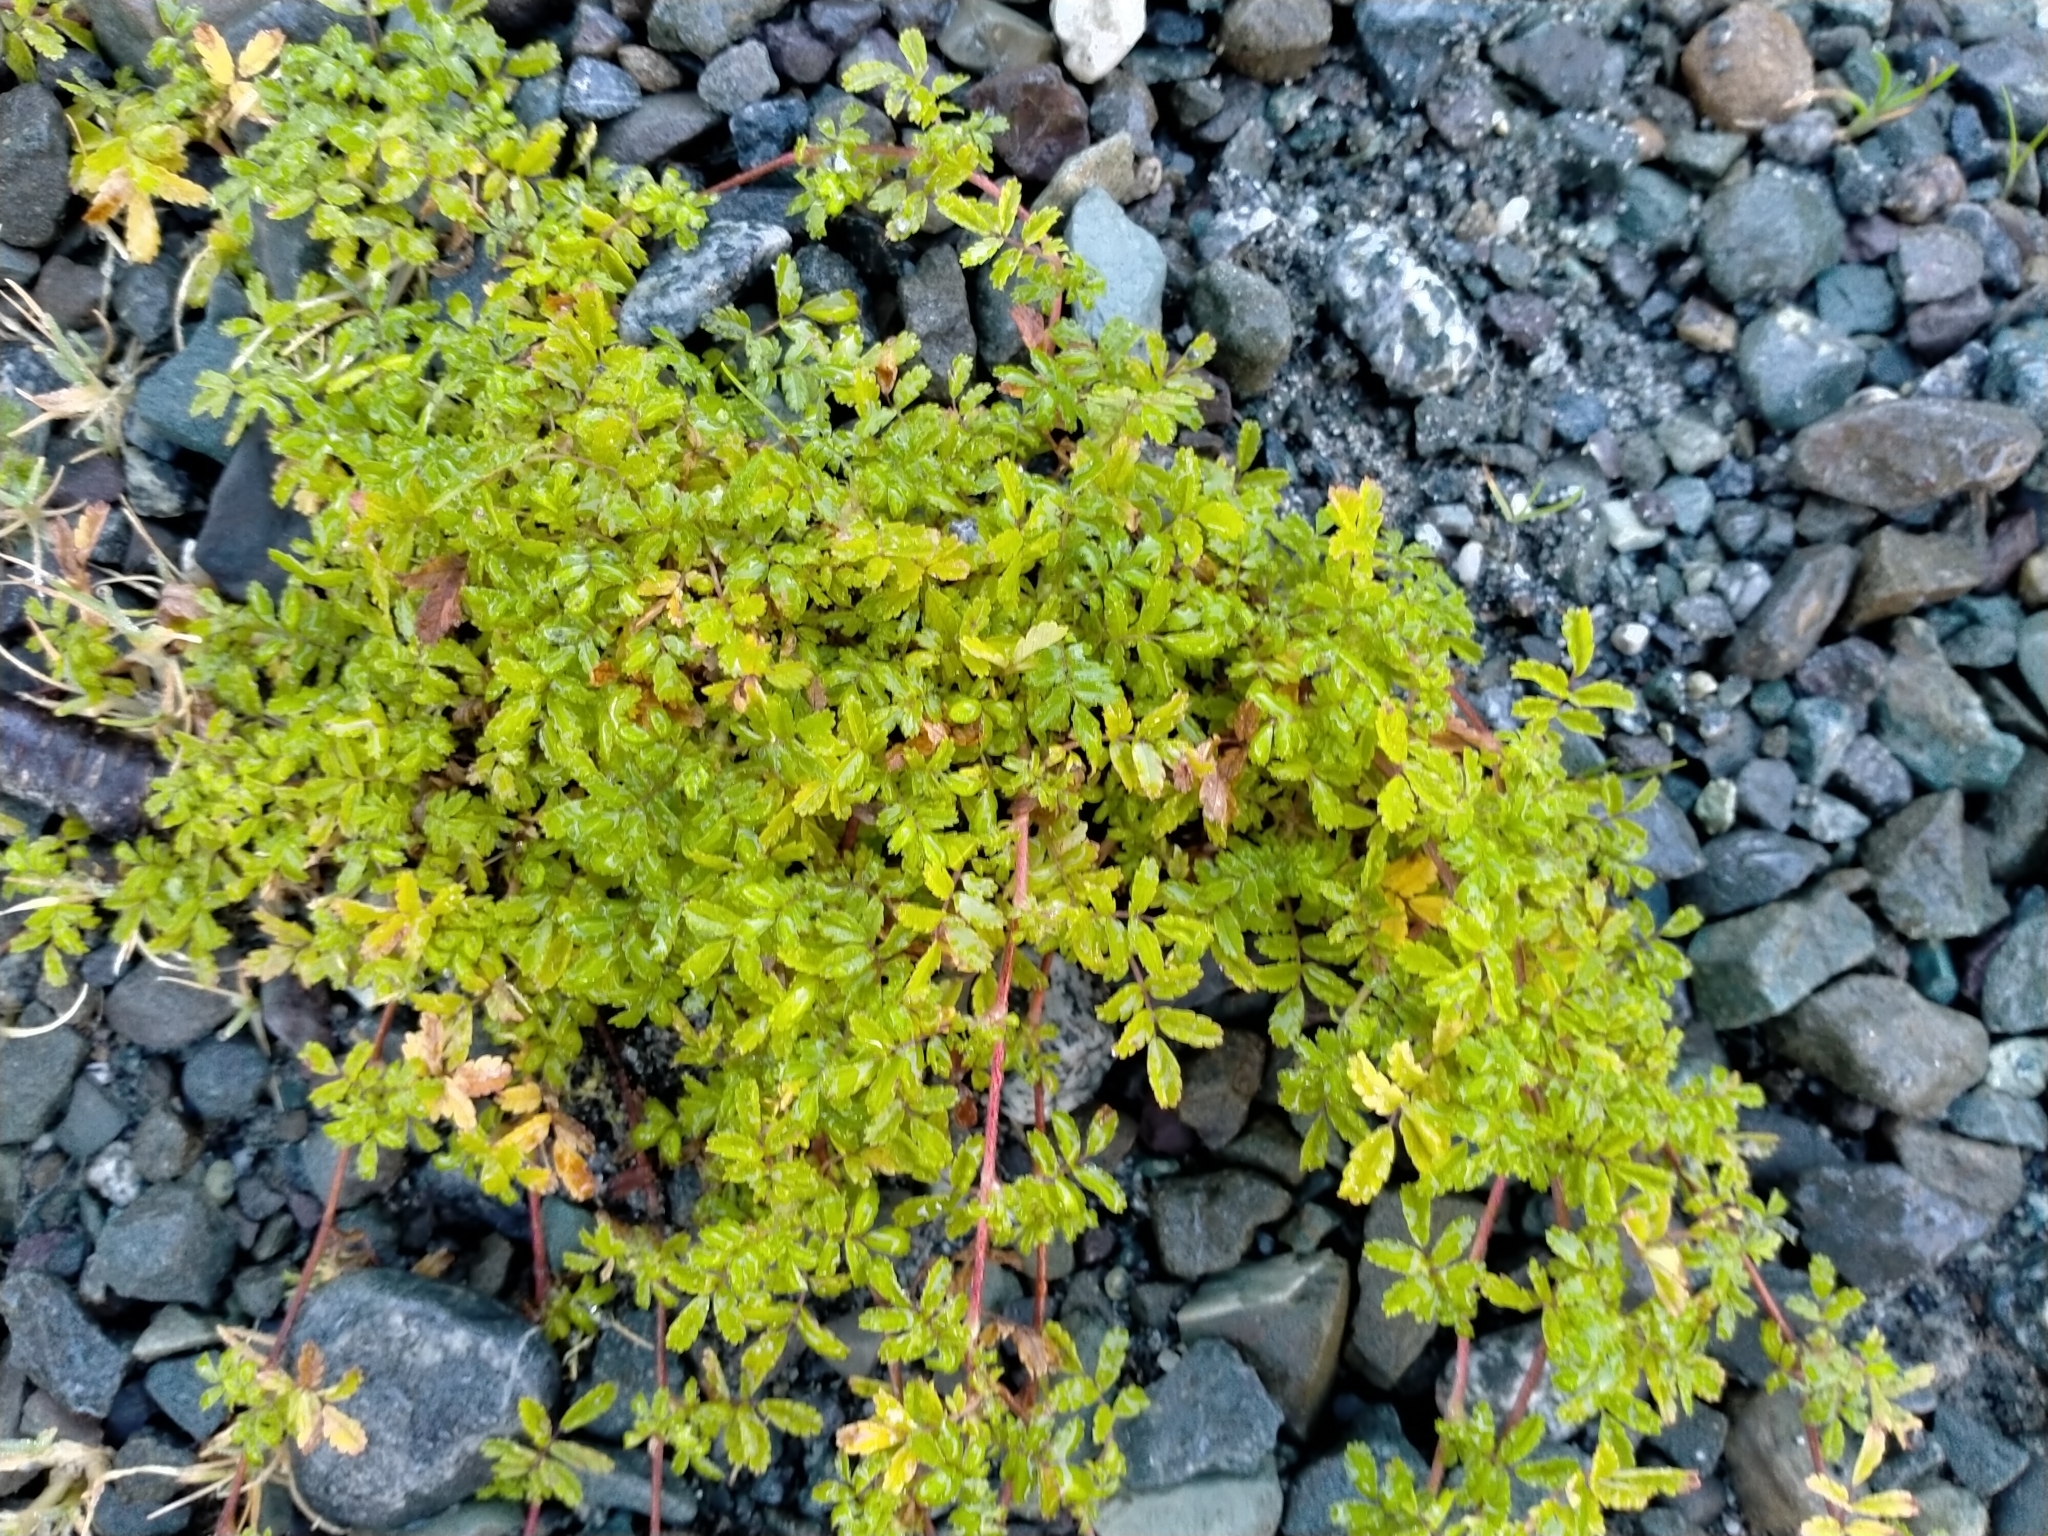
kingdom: Plantae
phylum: Tracheophyta
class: Magnoliopsida
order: Rosales
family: Rosaceae
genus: Acaena
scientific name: Acaena novae-zelandiae
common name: Pirri-pirri-bur
